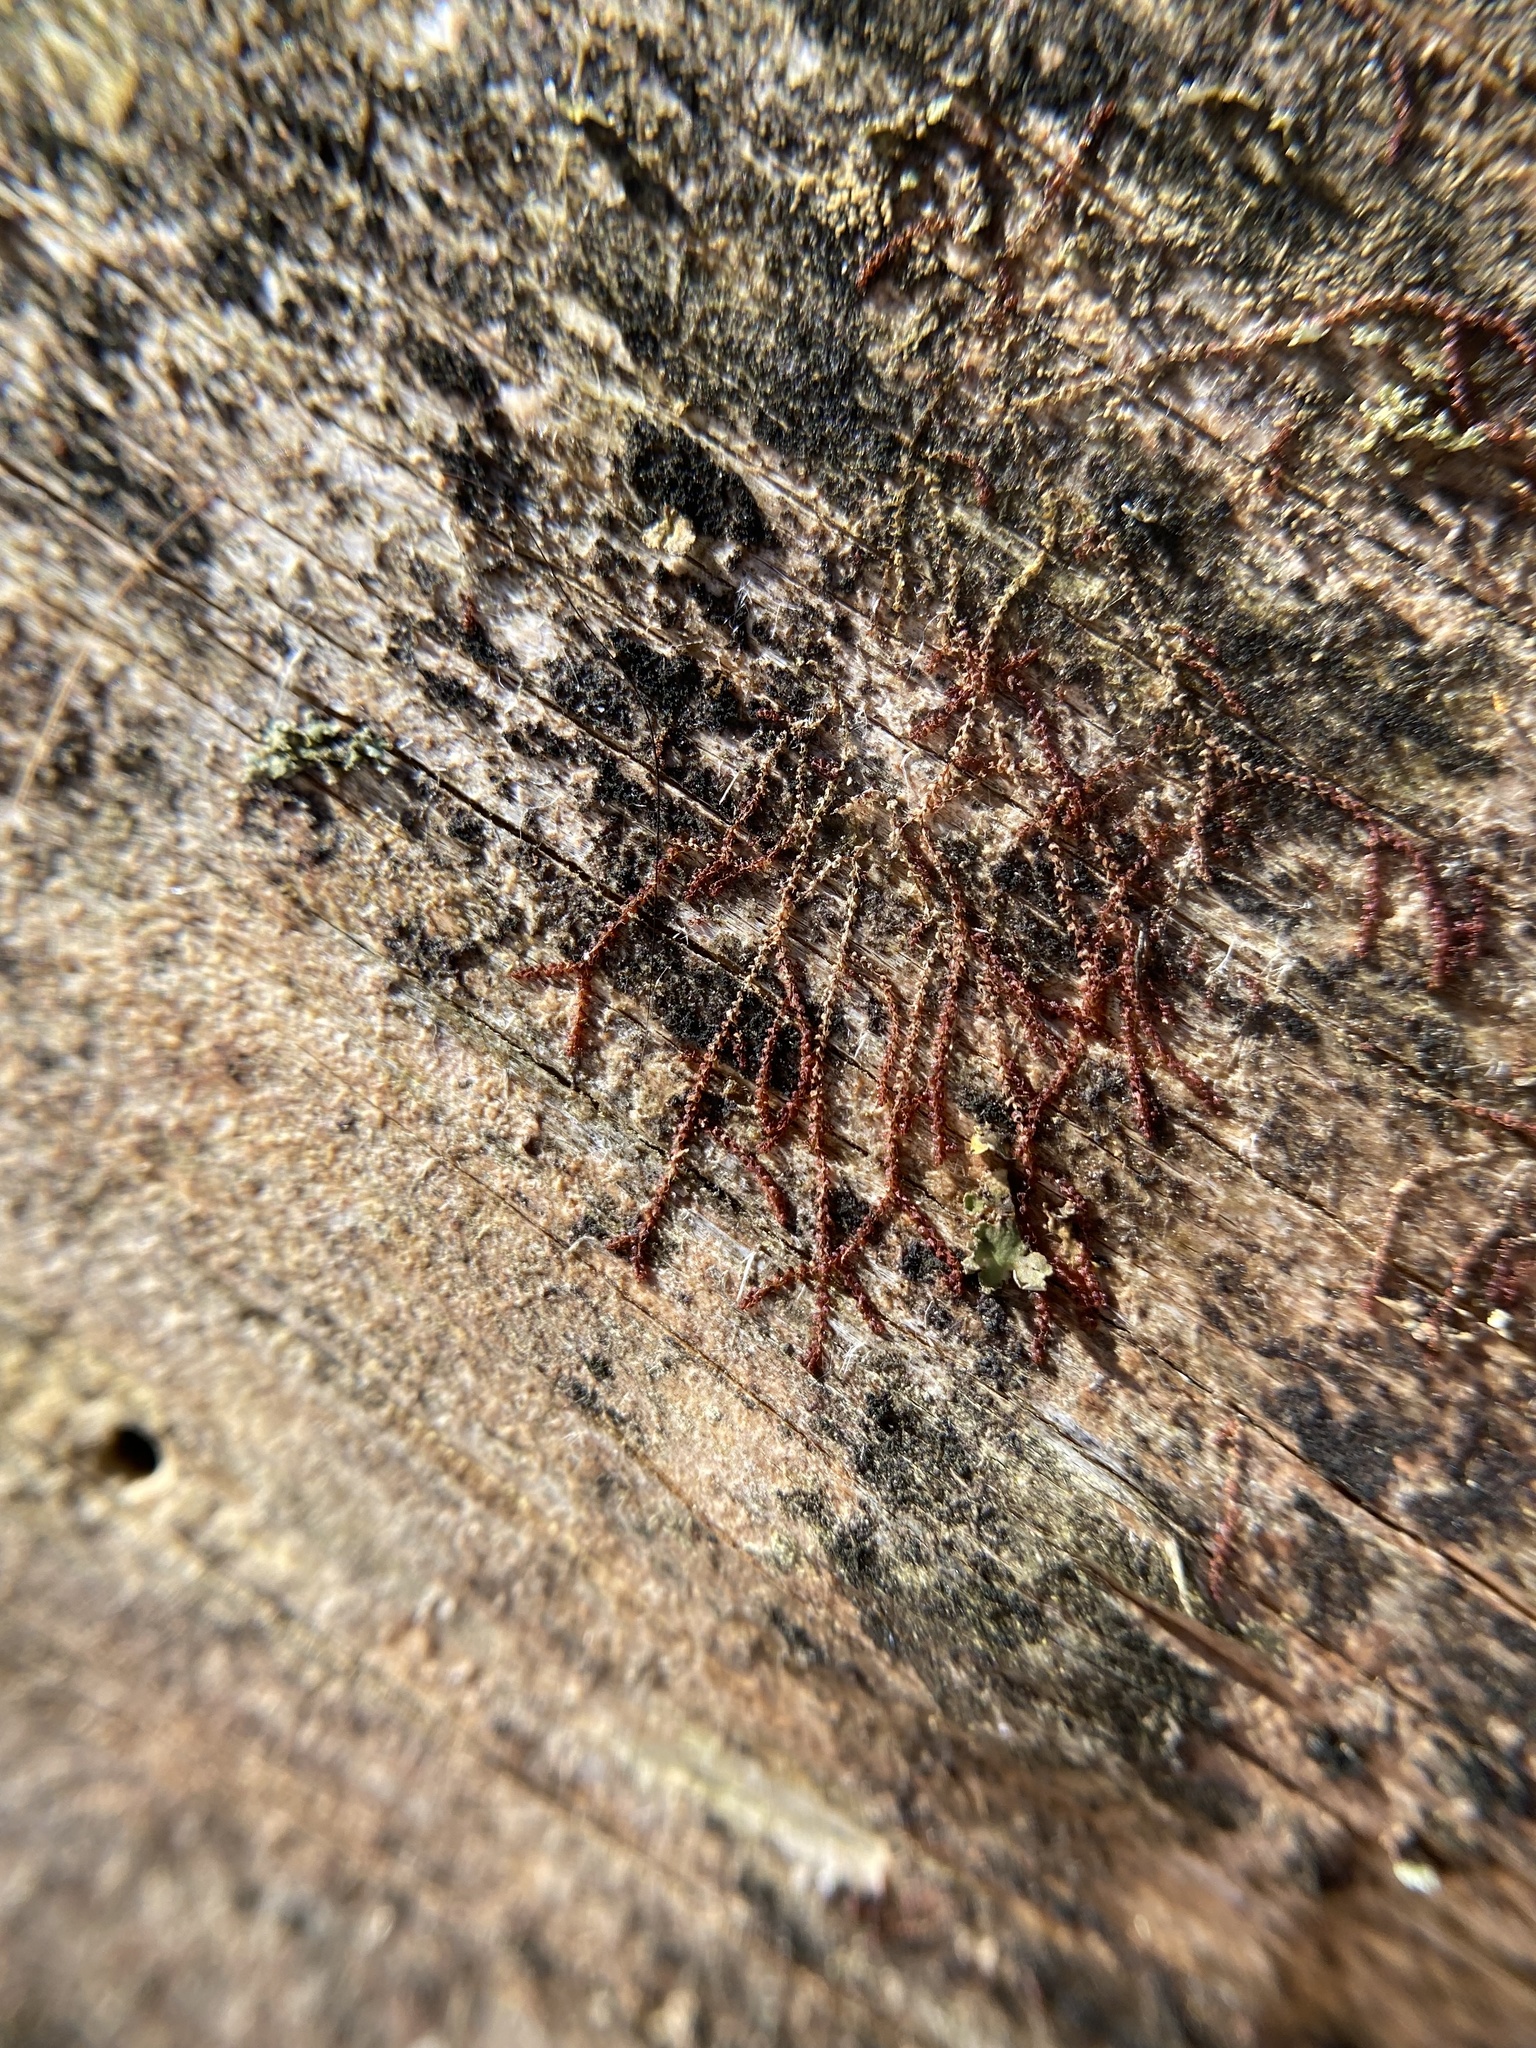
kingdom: Plantae
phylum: Marchantiophyta
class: Jungermanniopsida
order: Jungermanniales
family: Cephaloziaceae
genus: Nowellia
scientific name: Nowellia curvifolia
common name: Wood rustwort
